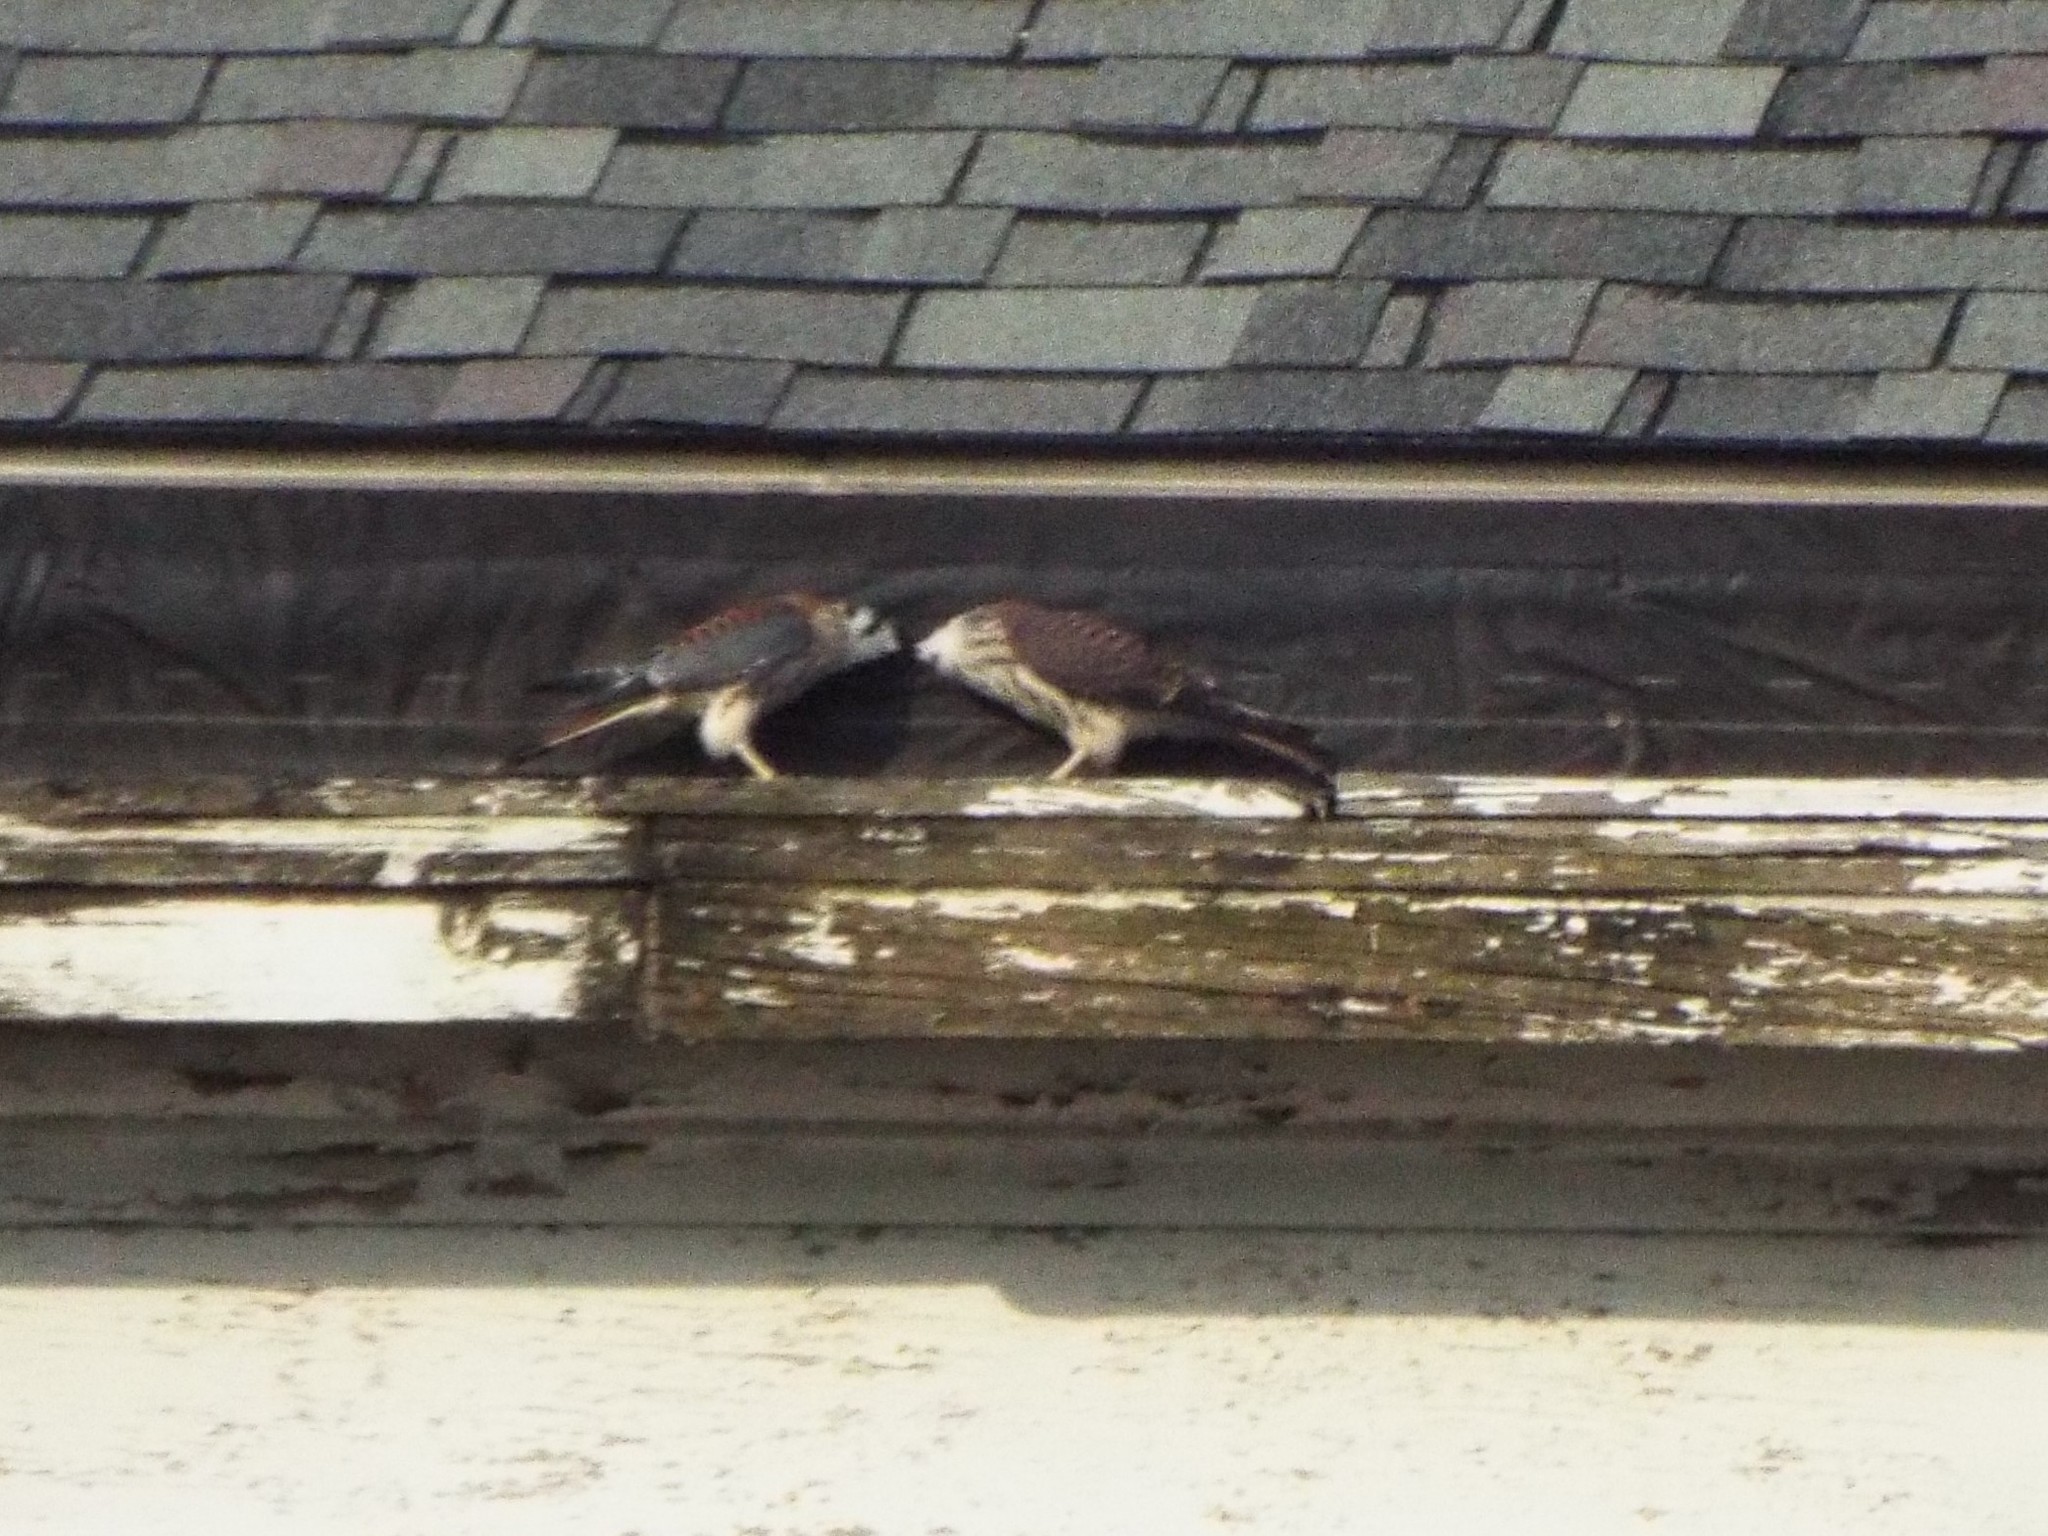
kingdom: Animalia
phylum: Chordata
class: Aves
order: Falconiformes
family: Falconidae
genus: Falco
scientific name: Falco sparverius
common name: American kestrel
